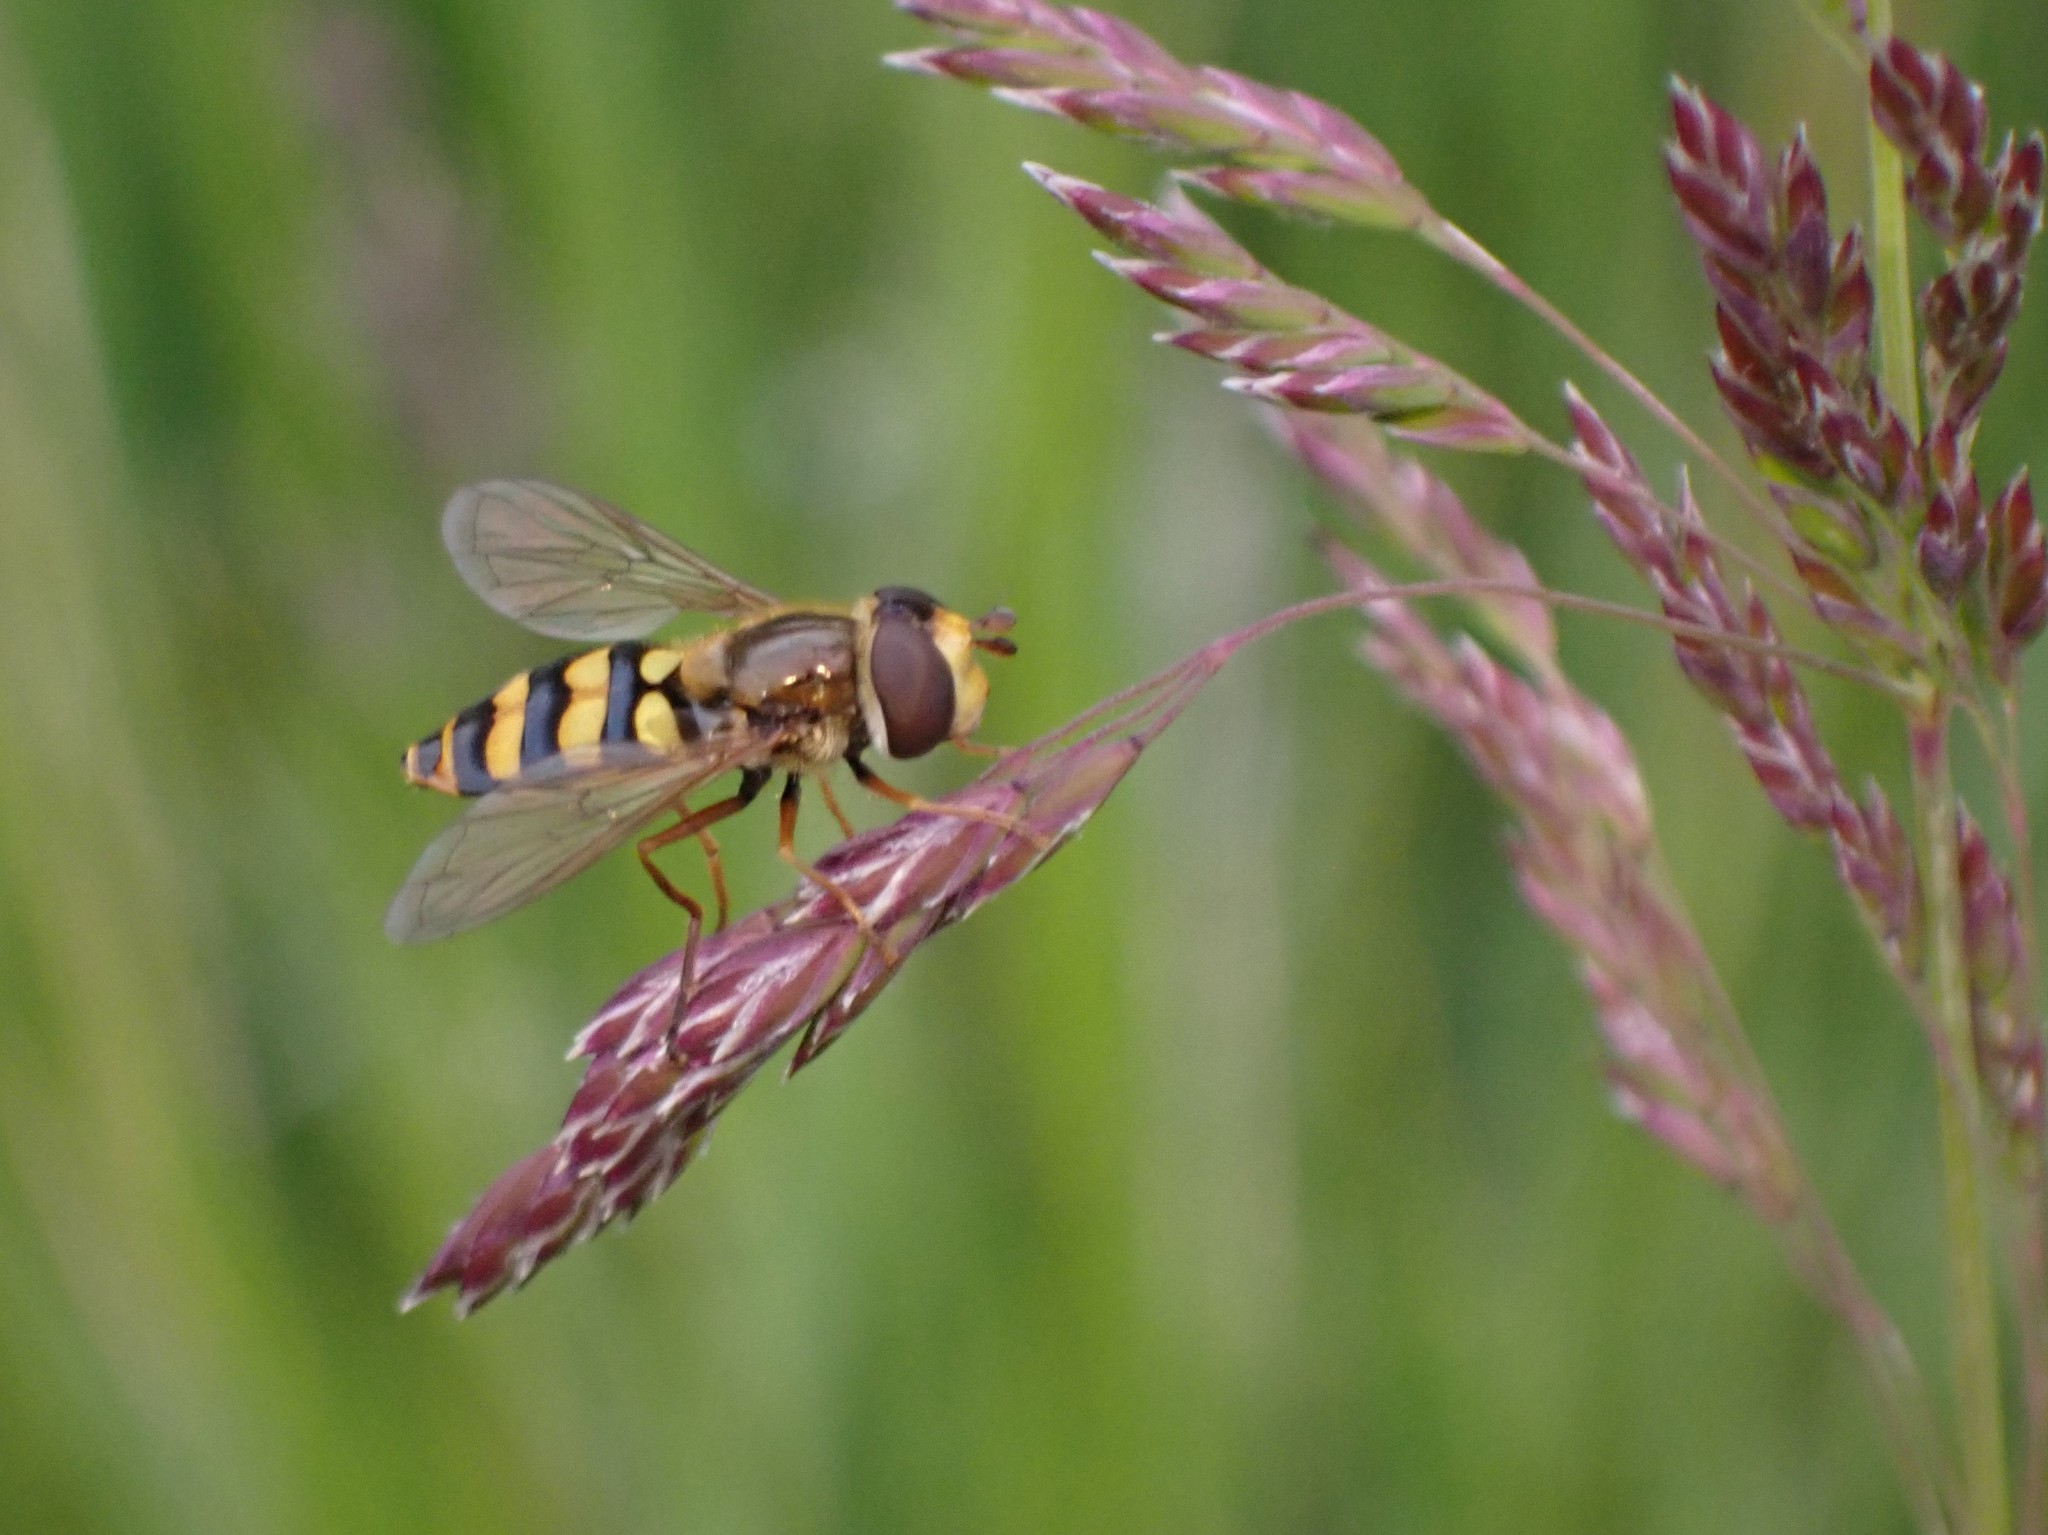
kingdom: Animalia
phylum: Arthropoda
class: Insecta
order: Diptera
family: Syrphidae
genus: Eupeodes
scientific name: Eupeodes fumipennis
